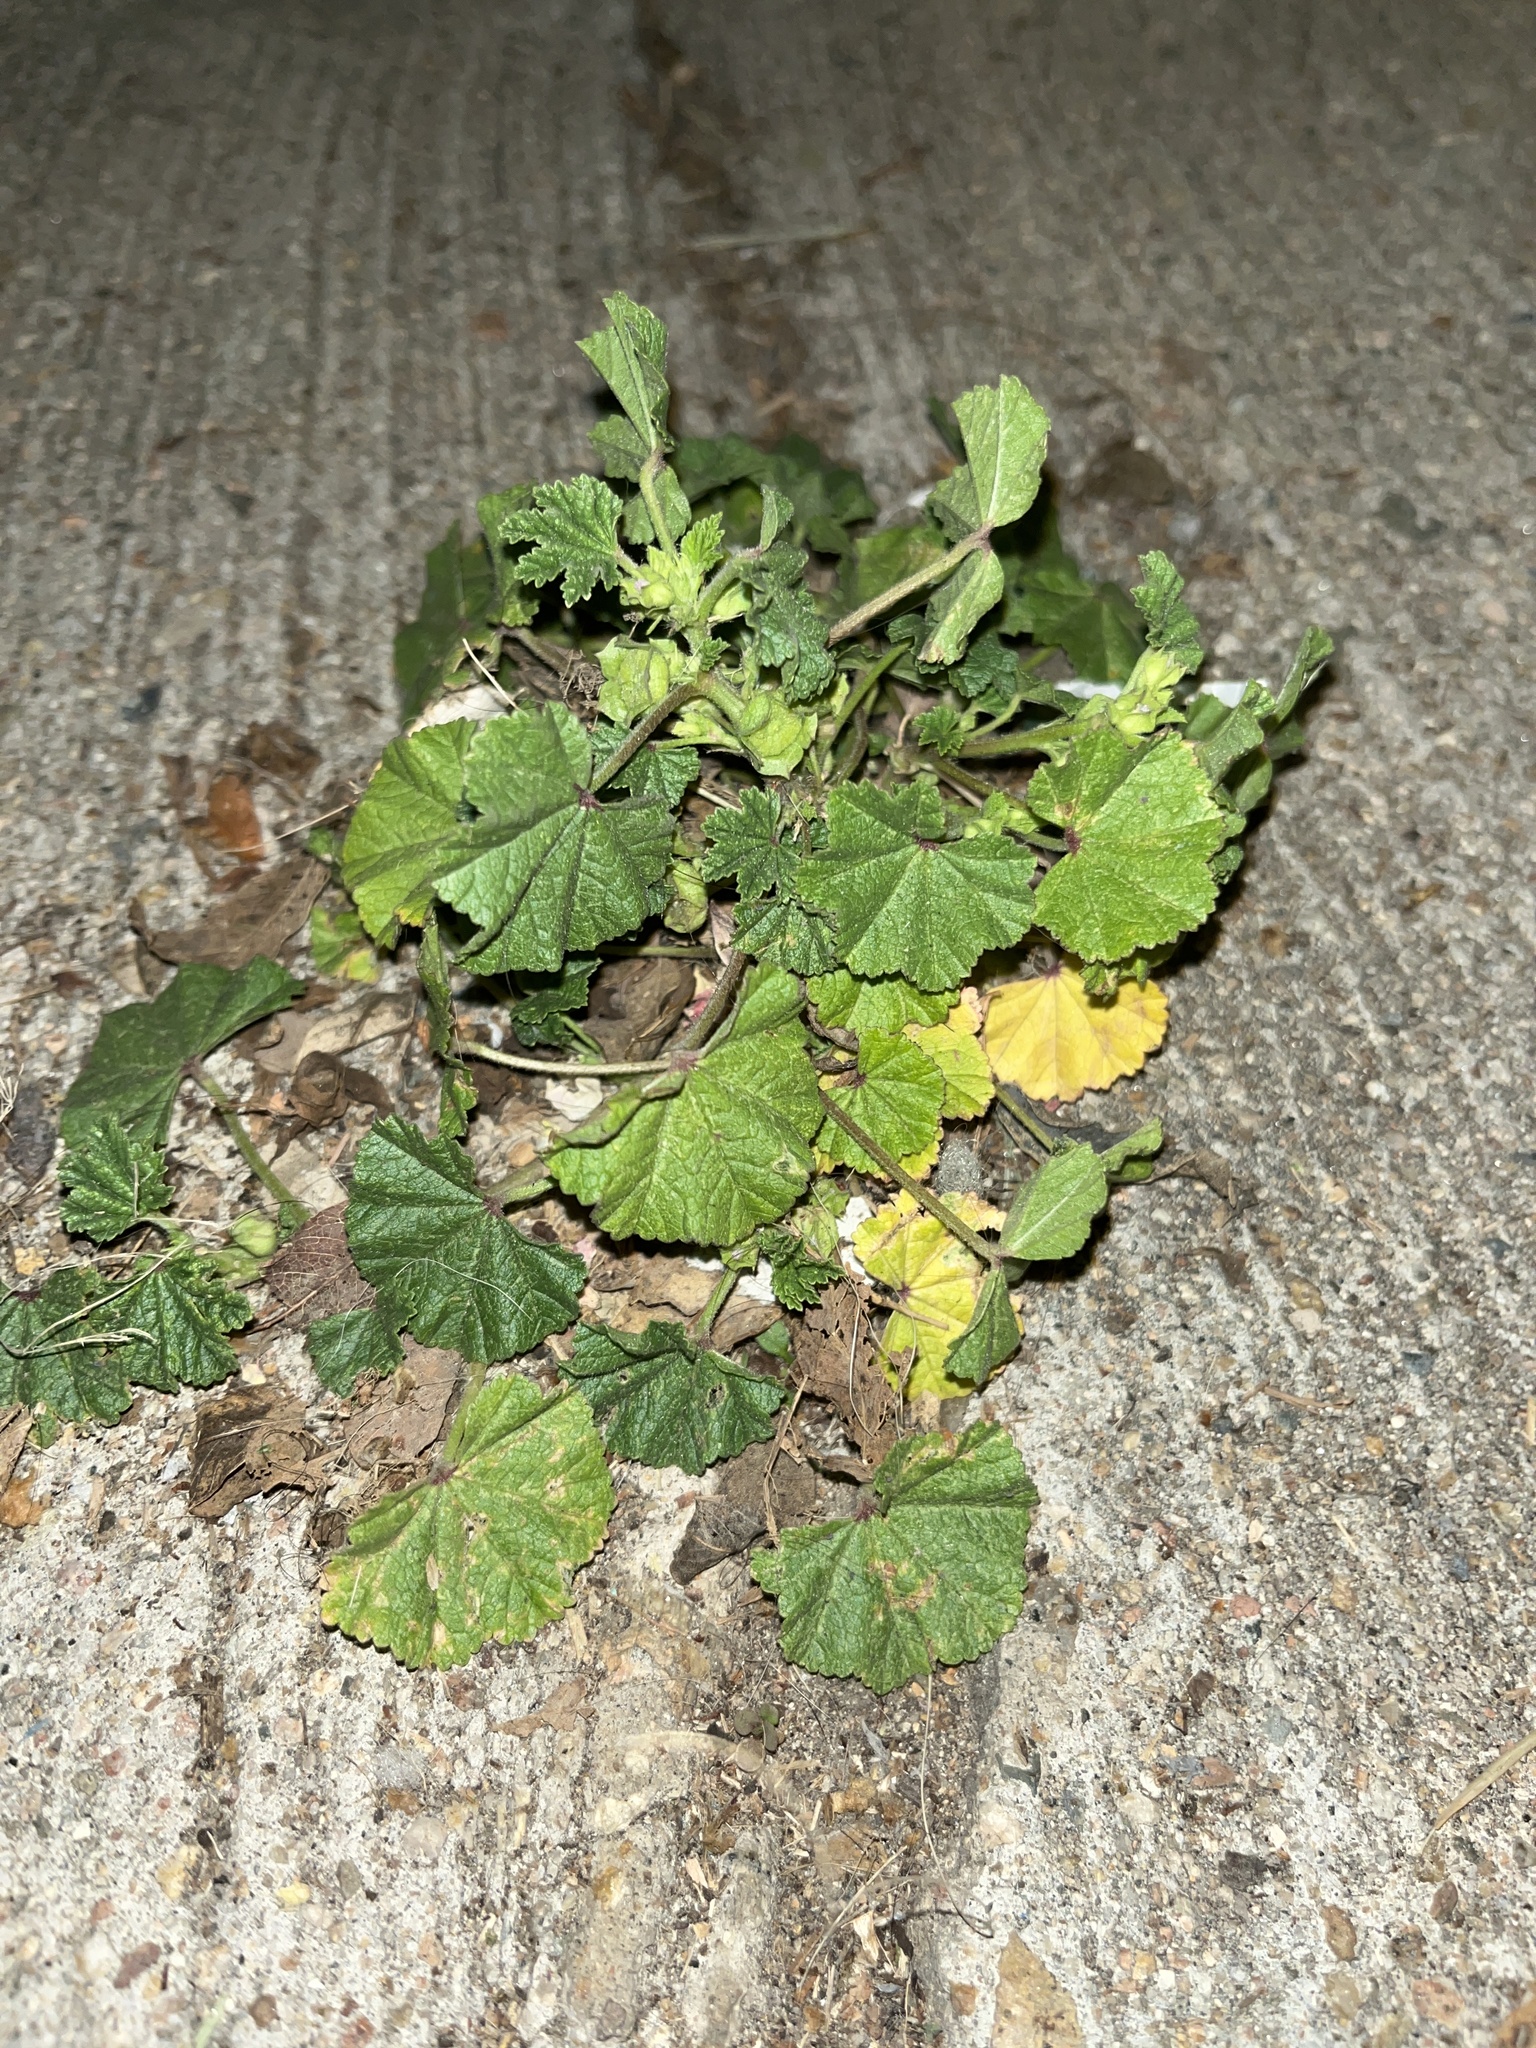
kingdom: Plantae
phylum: Tracheophyta
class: Magnoliopsida
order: Malvales
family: Malvaceae
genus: Malva
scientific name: Malva parviflora
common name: Least mallow
